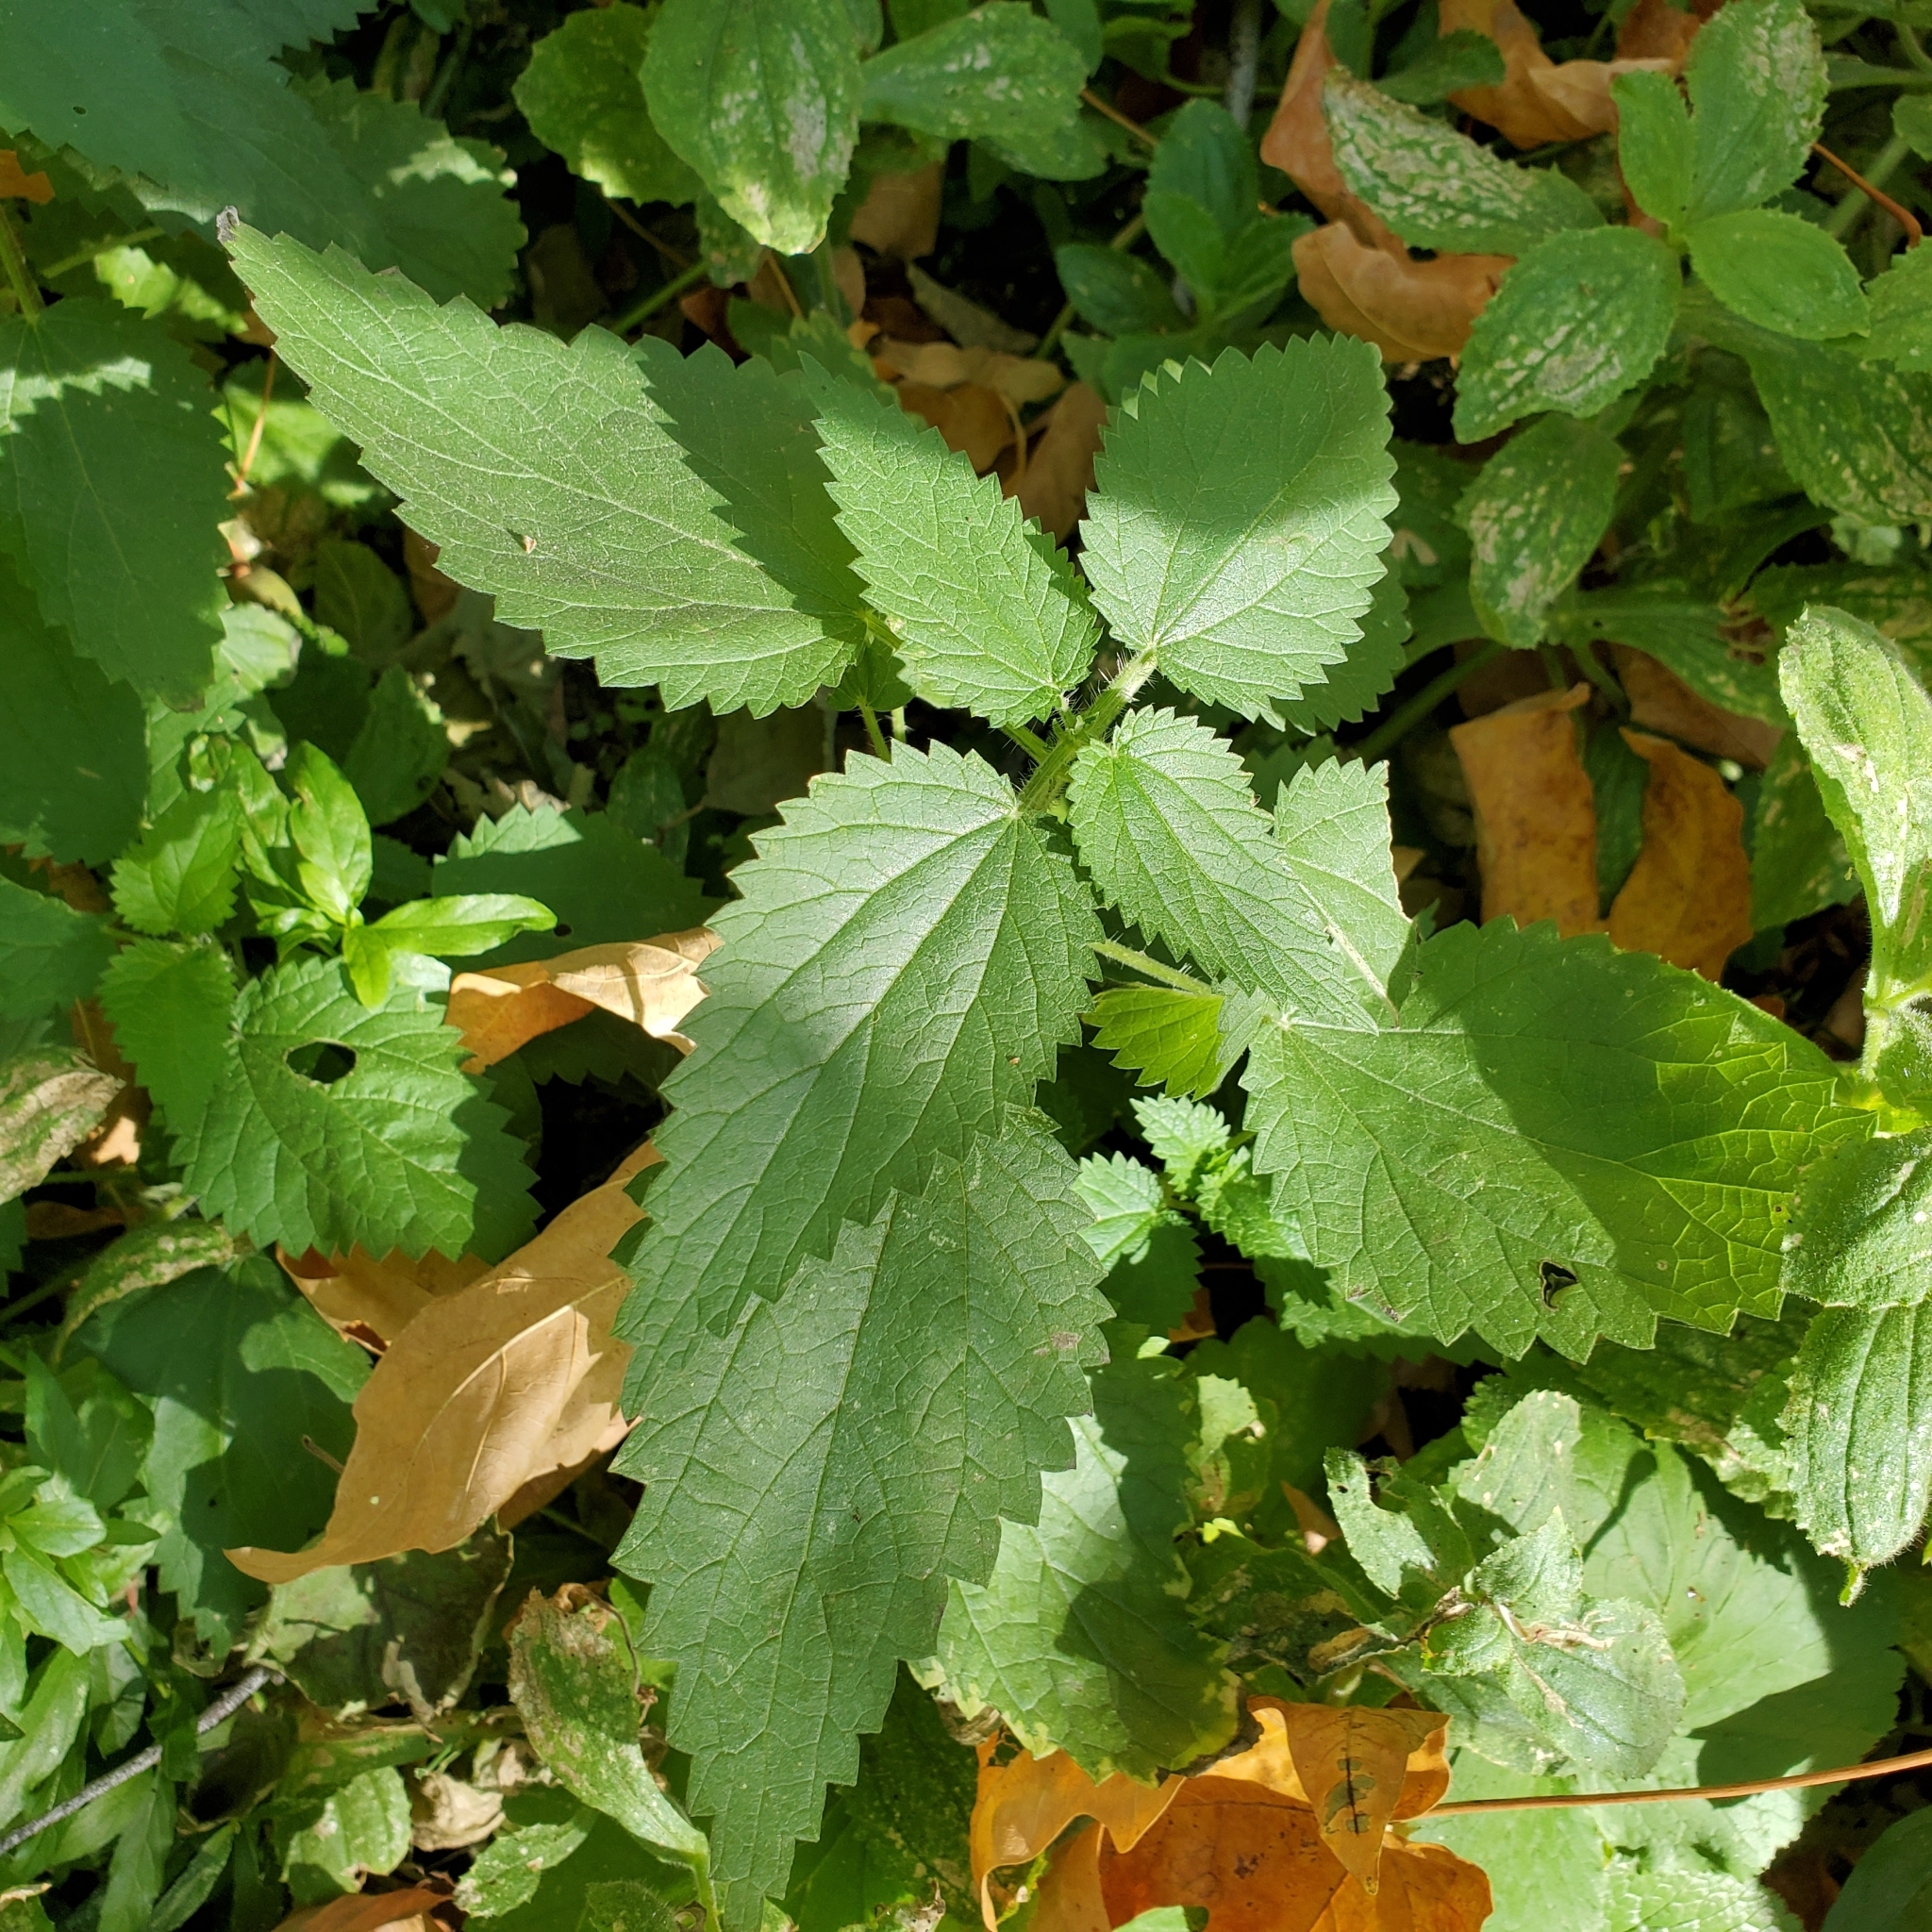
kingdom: Plantae
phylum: Tracheophyta
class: Magnoliopsida
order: Rosales
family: Urticaceae
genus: Urtica
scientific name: Urtica dioica
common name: Common nettle
